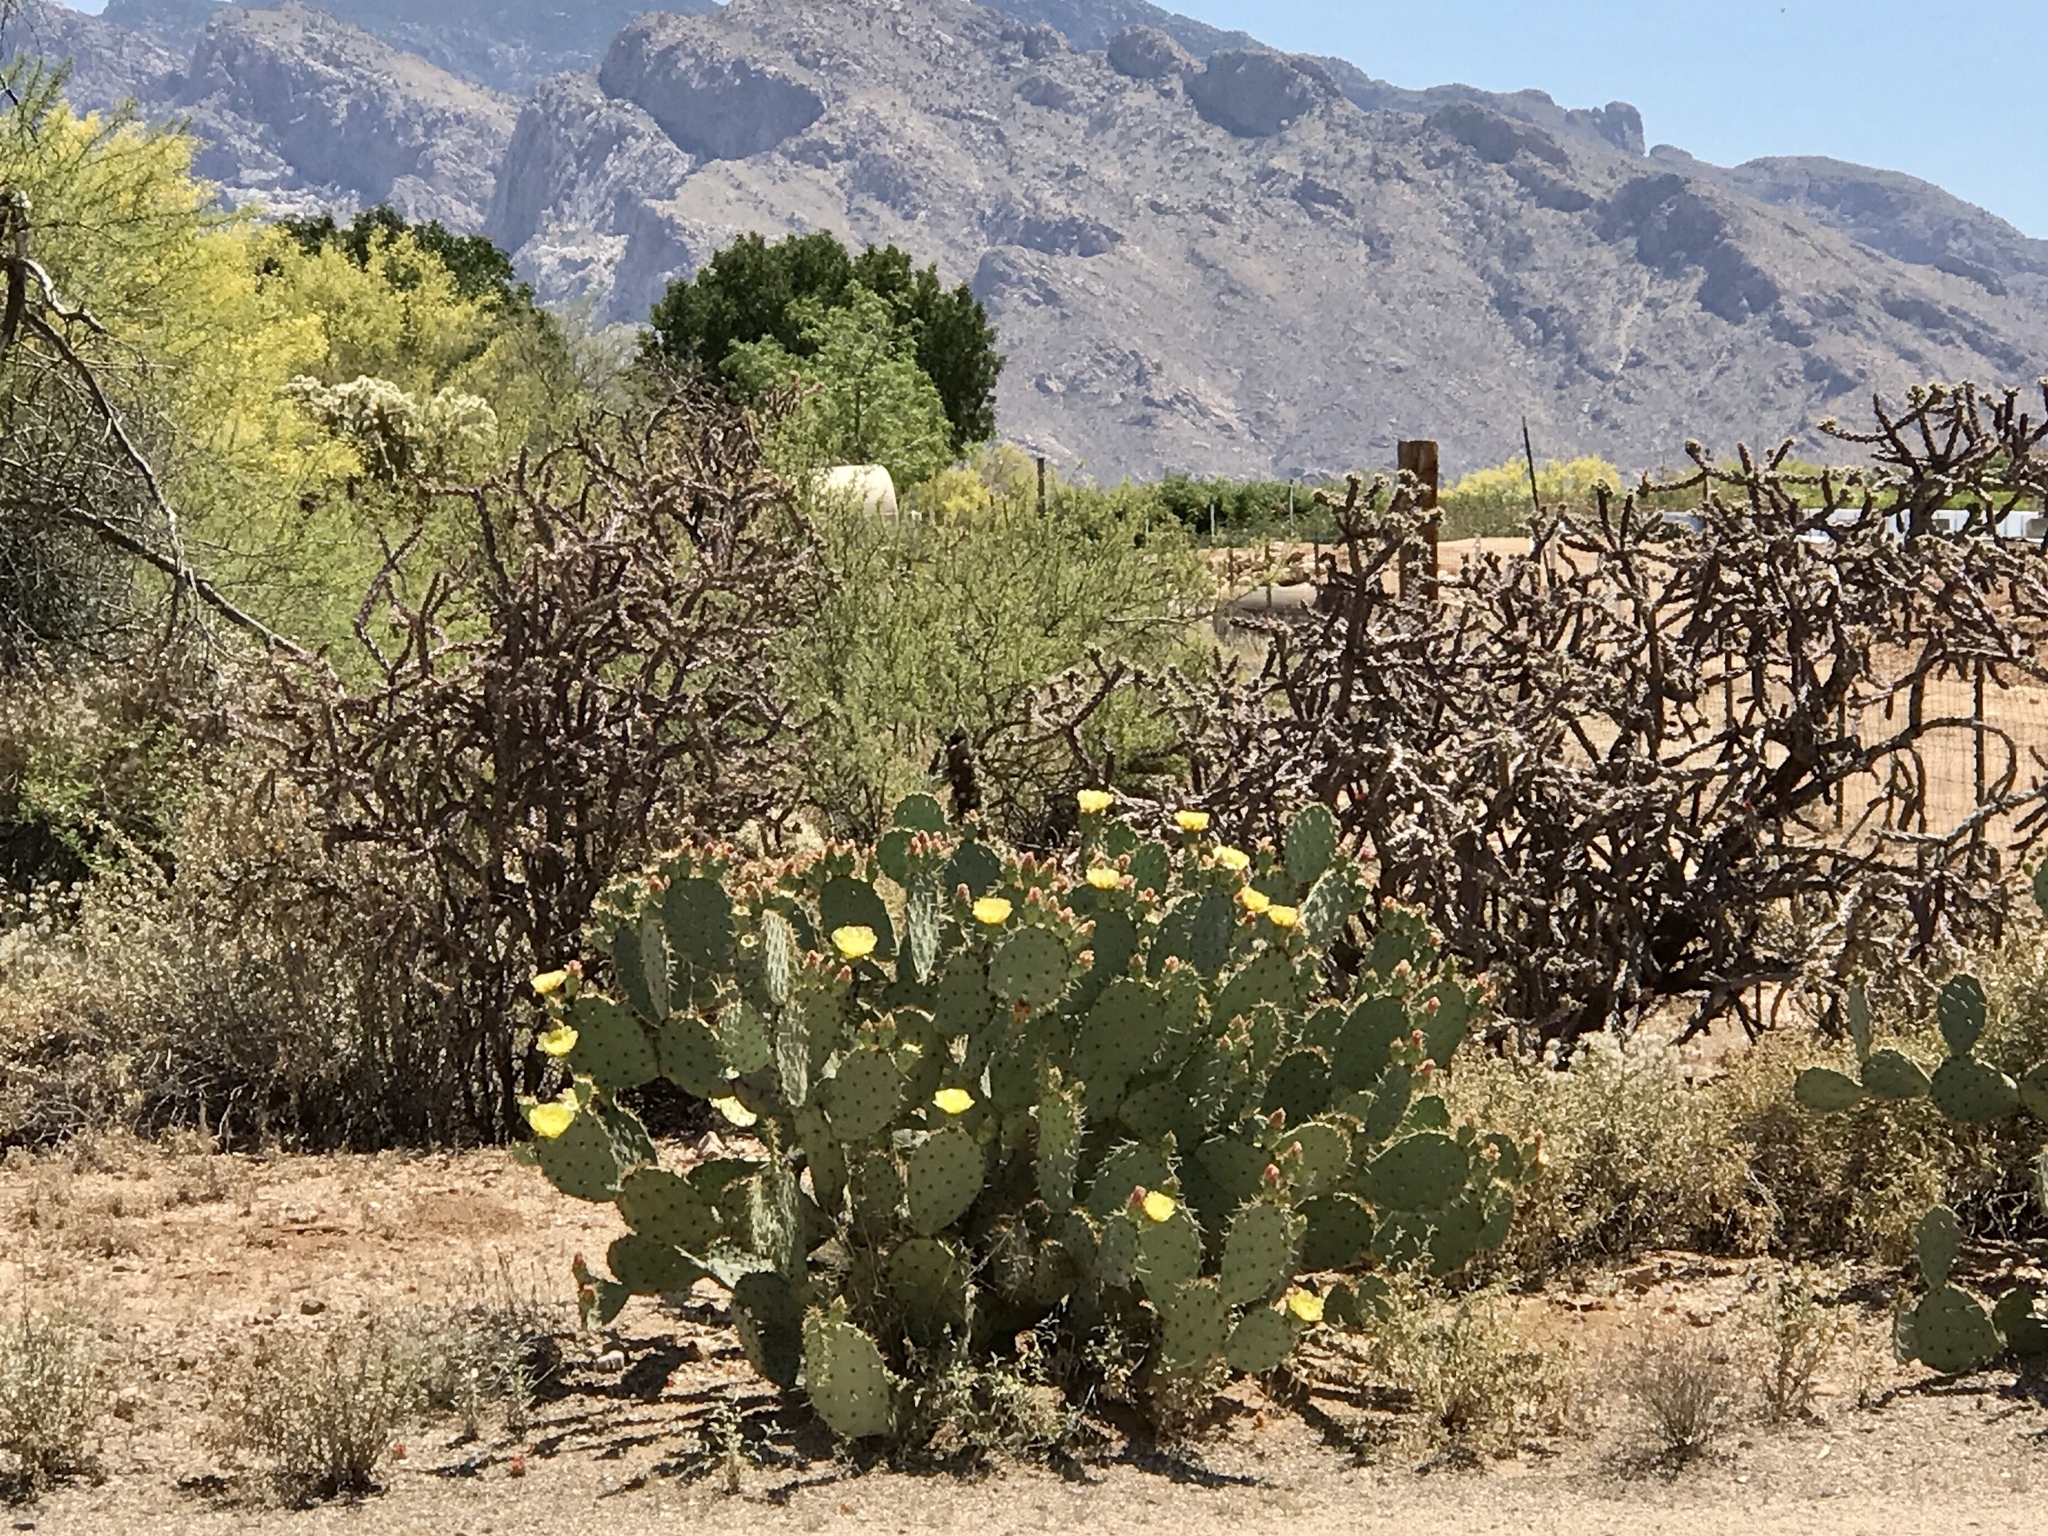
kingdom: Plantae
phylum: Tracheophyta
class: Magnoliopsida
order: Caryophyllales
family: Cactaceae
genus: Opuntia
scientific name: Opuntia engelmannii
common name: Cactus-apple
